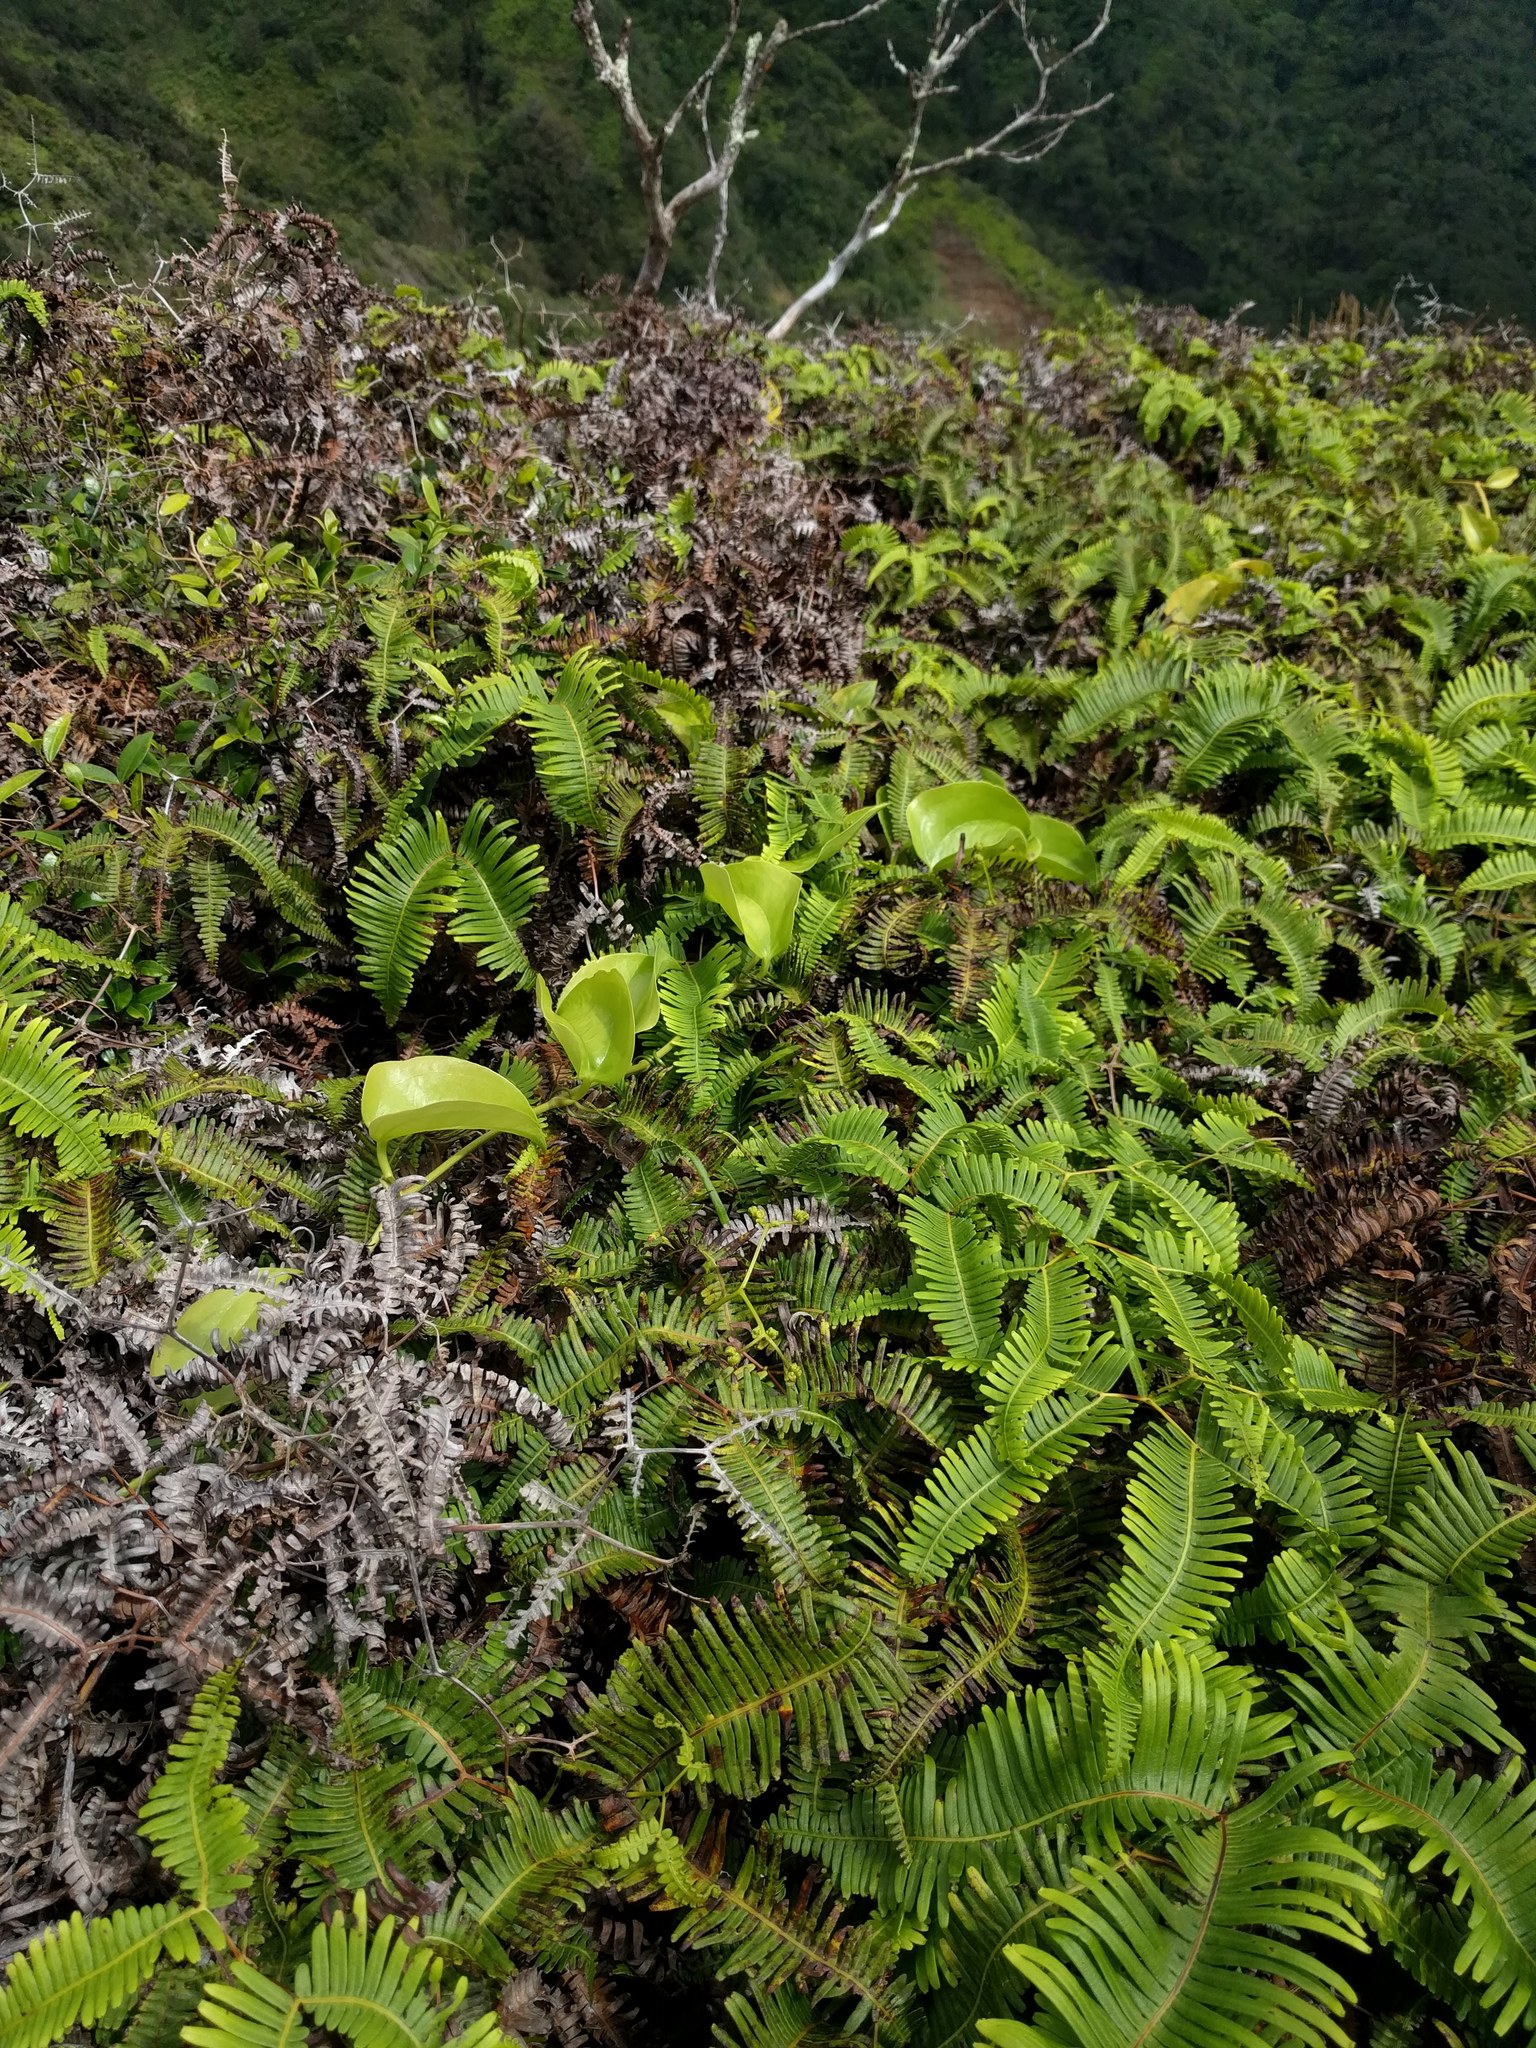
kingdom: Plantae
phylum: Tracheophyta
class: Liliopsida
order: Liliales
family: Smilacaceae
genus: Smilax
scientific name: Smilax melastomifolia
